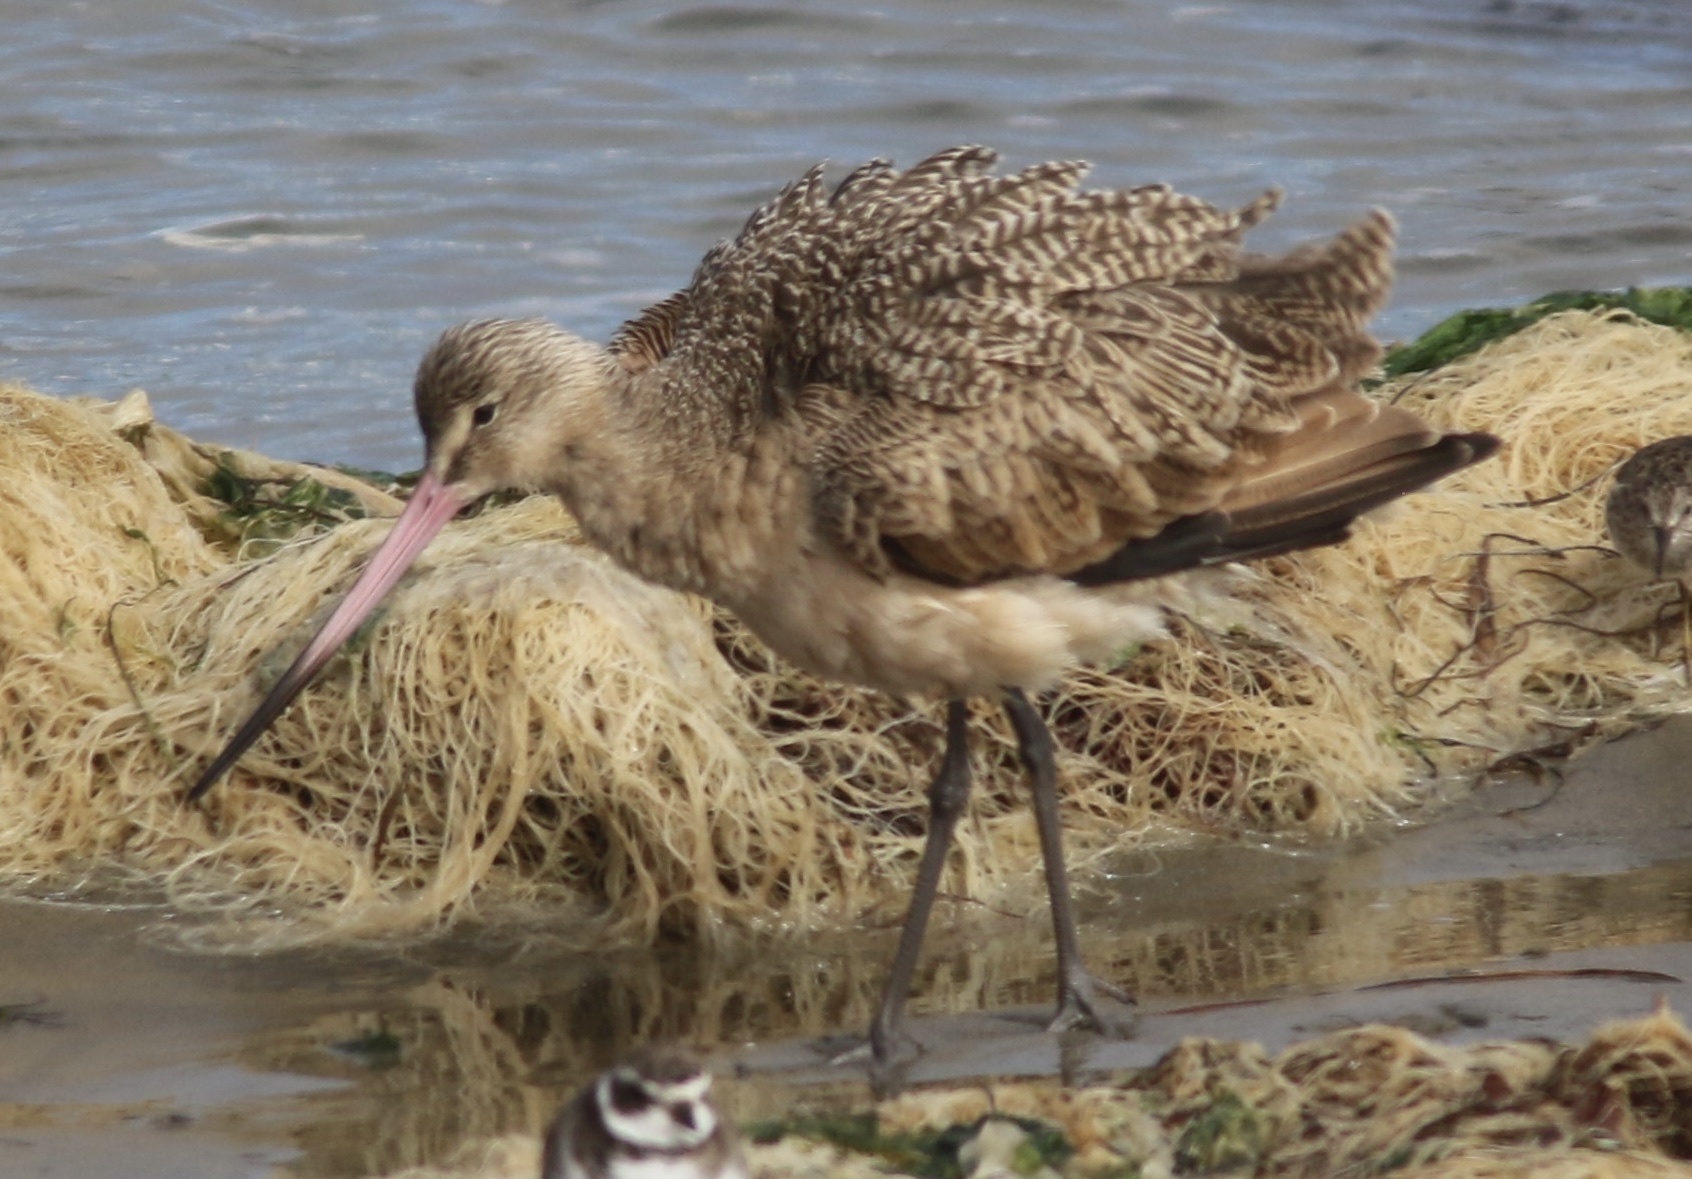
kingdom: Animalia
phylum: Chordata
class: Aves
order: Charadriiformes
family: Scolopacidae
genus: Limosa
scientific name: Limosa fedoa
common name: Marbled godwit
